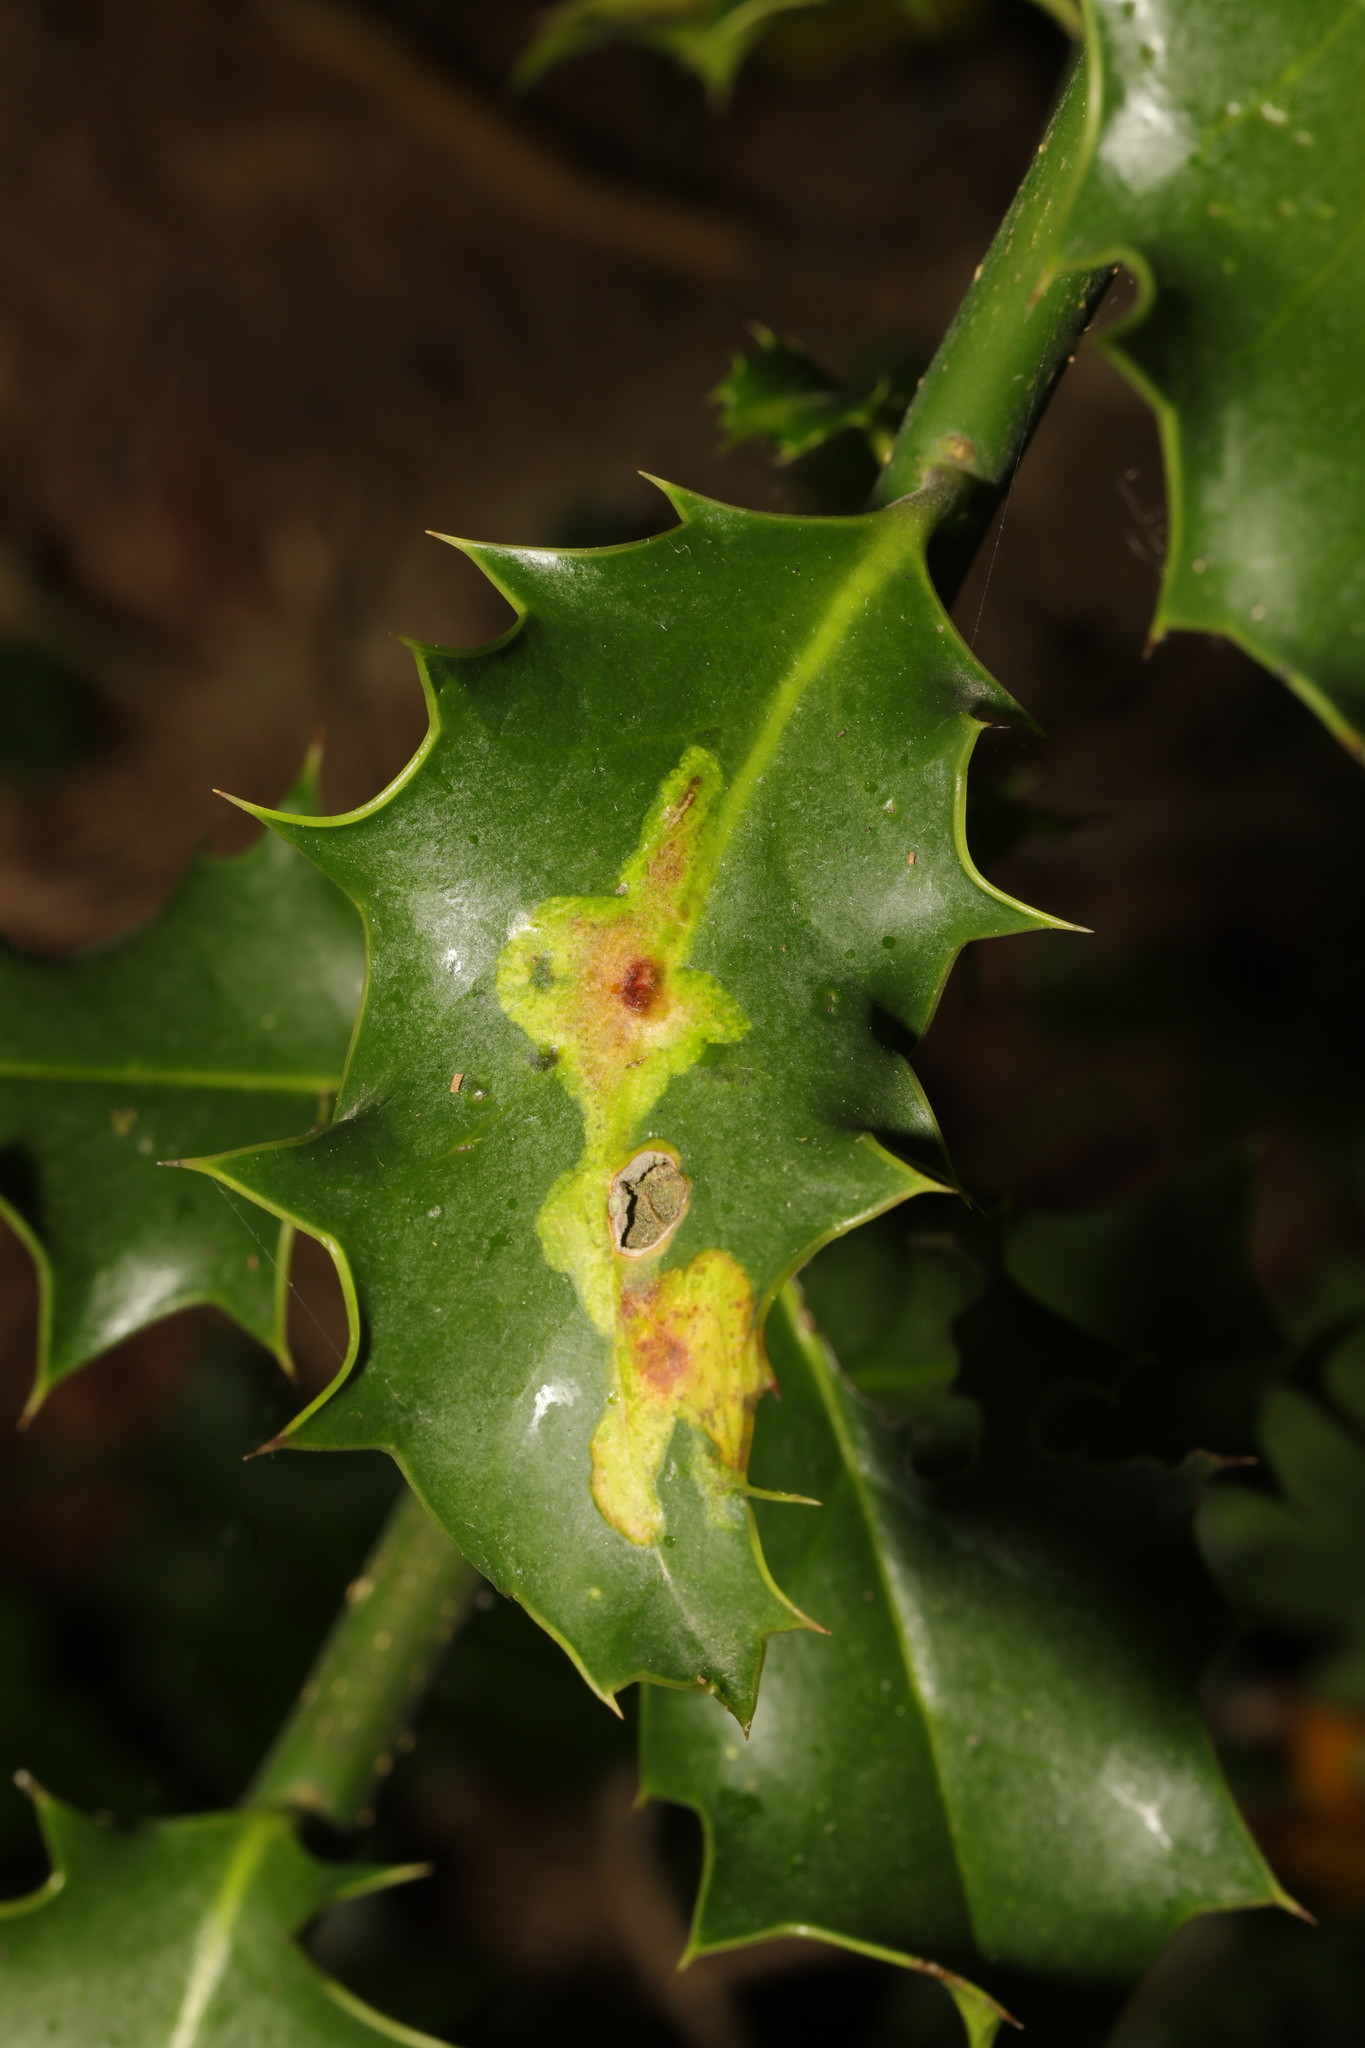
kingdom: Animalia
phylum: Arthropoda
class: Insecta
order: Diptera
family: Agromyzidae
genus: Phytomyza
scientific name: Phytomyza ilicis
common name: Holly leafminer
